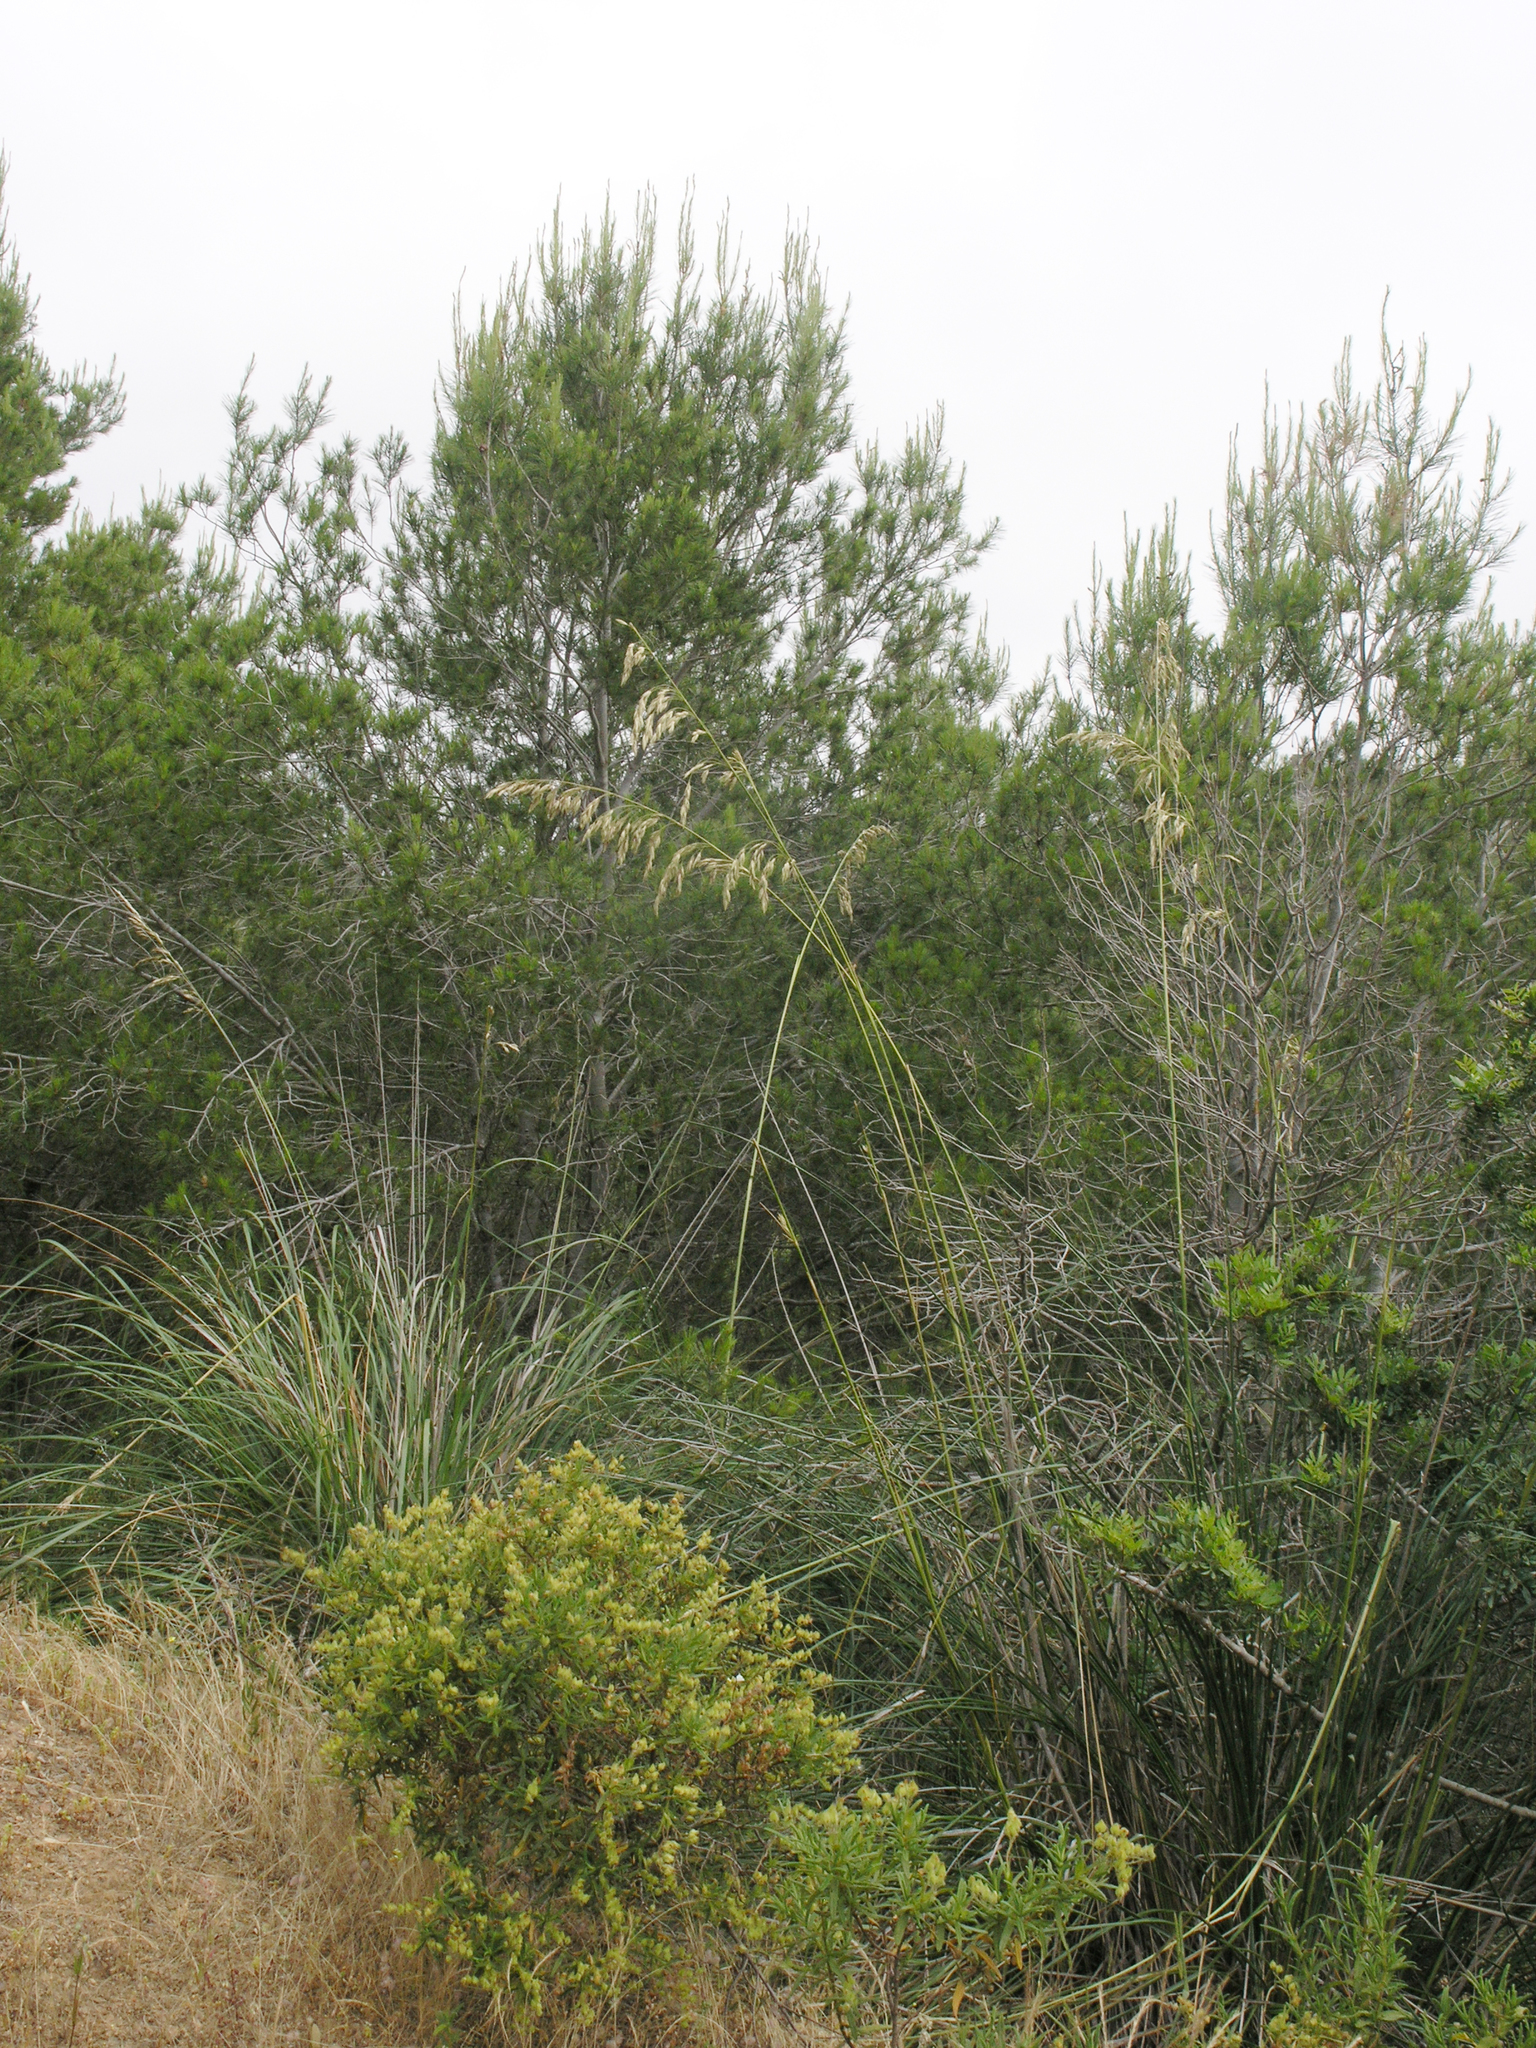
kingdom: Plantae
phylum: Tracheophyta
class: Liliopsida
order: Poales
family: Poaceae
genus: Ampelodesmos
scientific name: Ampelodesmos mauritanicus
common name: Mauritanian grass
